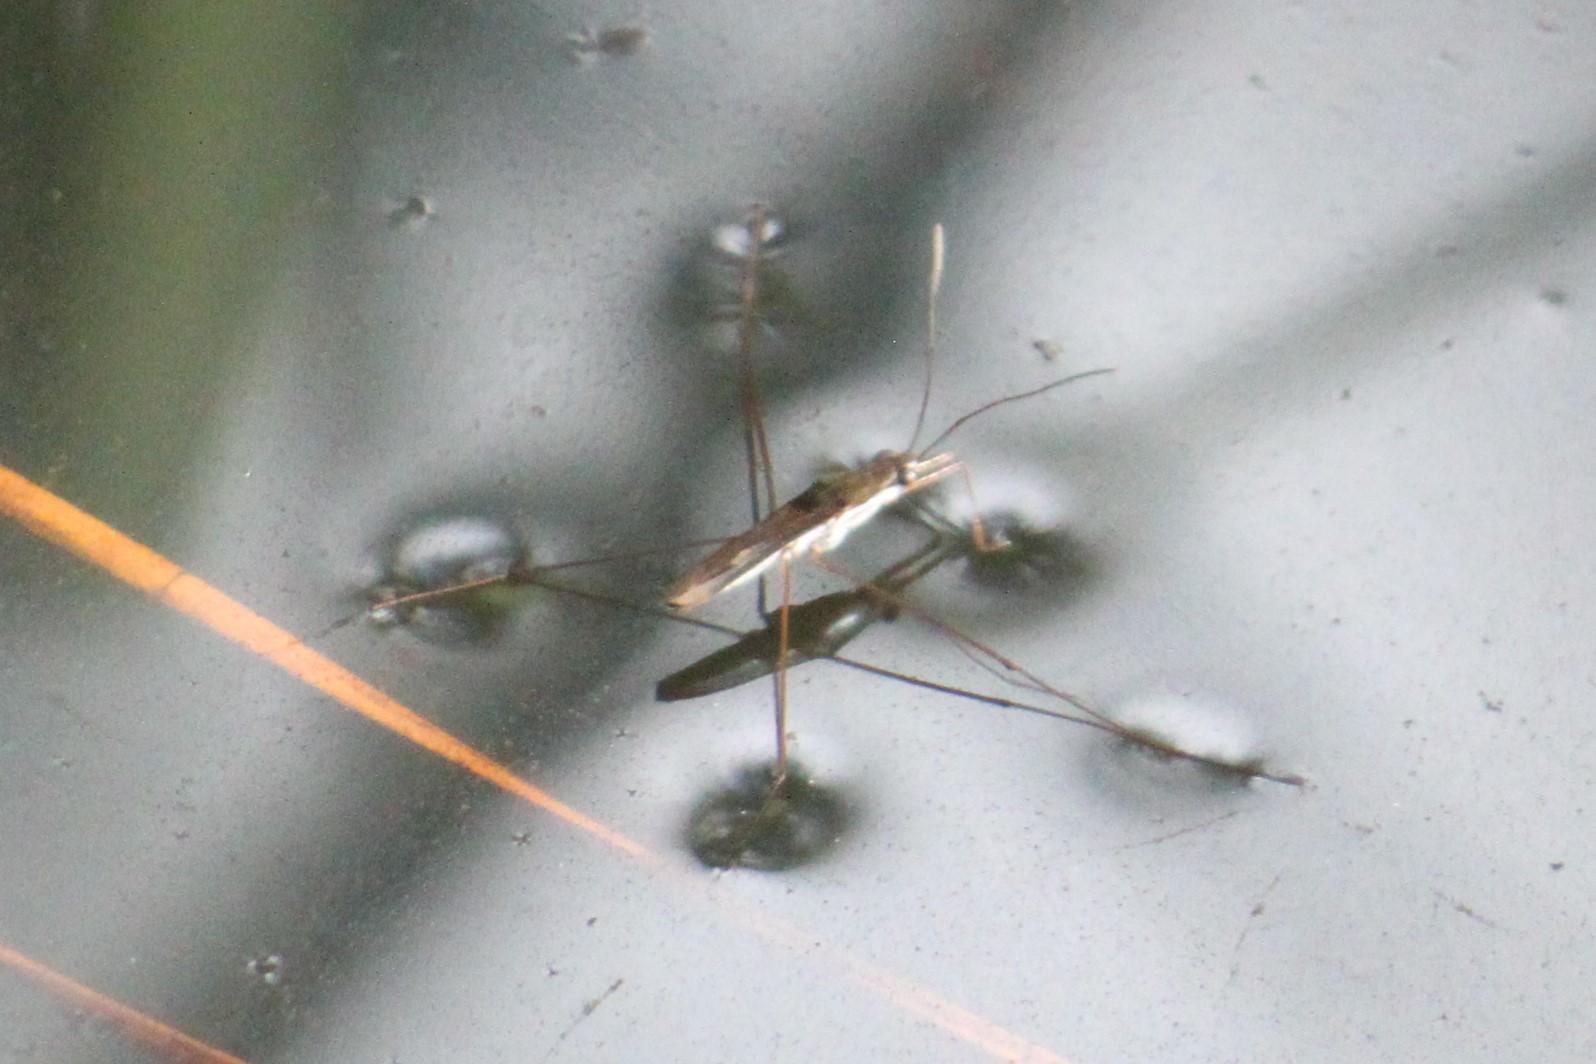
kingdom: Animalia
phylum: Arthropoda
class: Insecta
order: Hemiptera
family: Gerridae
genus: Limnoporus
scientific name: Limnoporus canaliculatus
